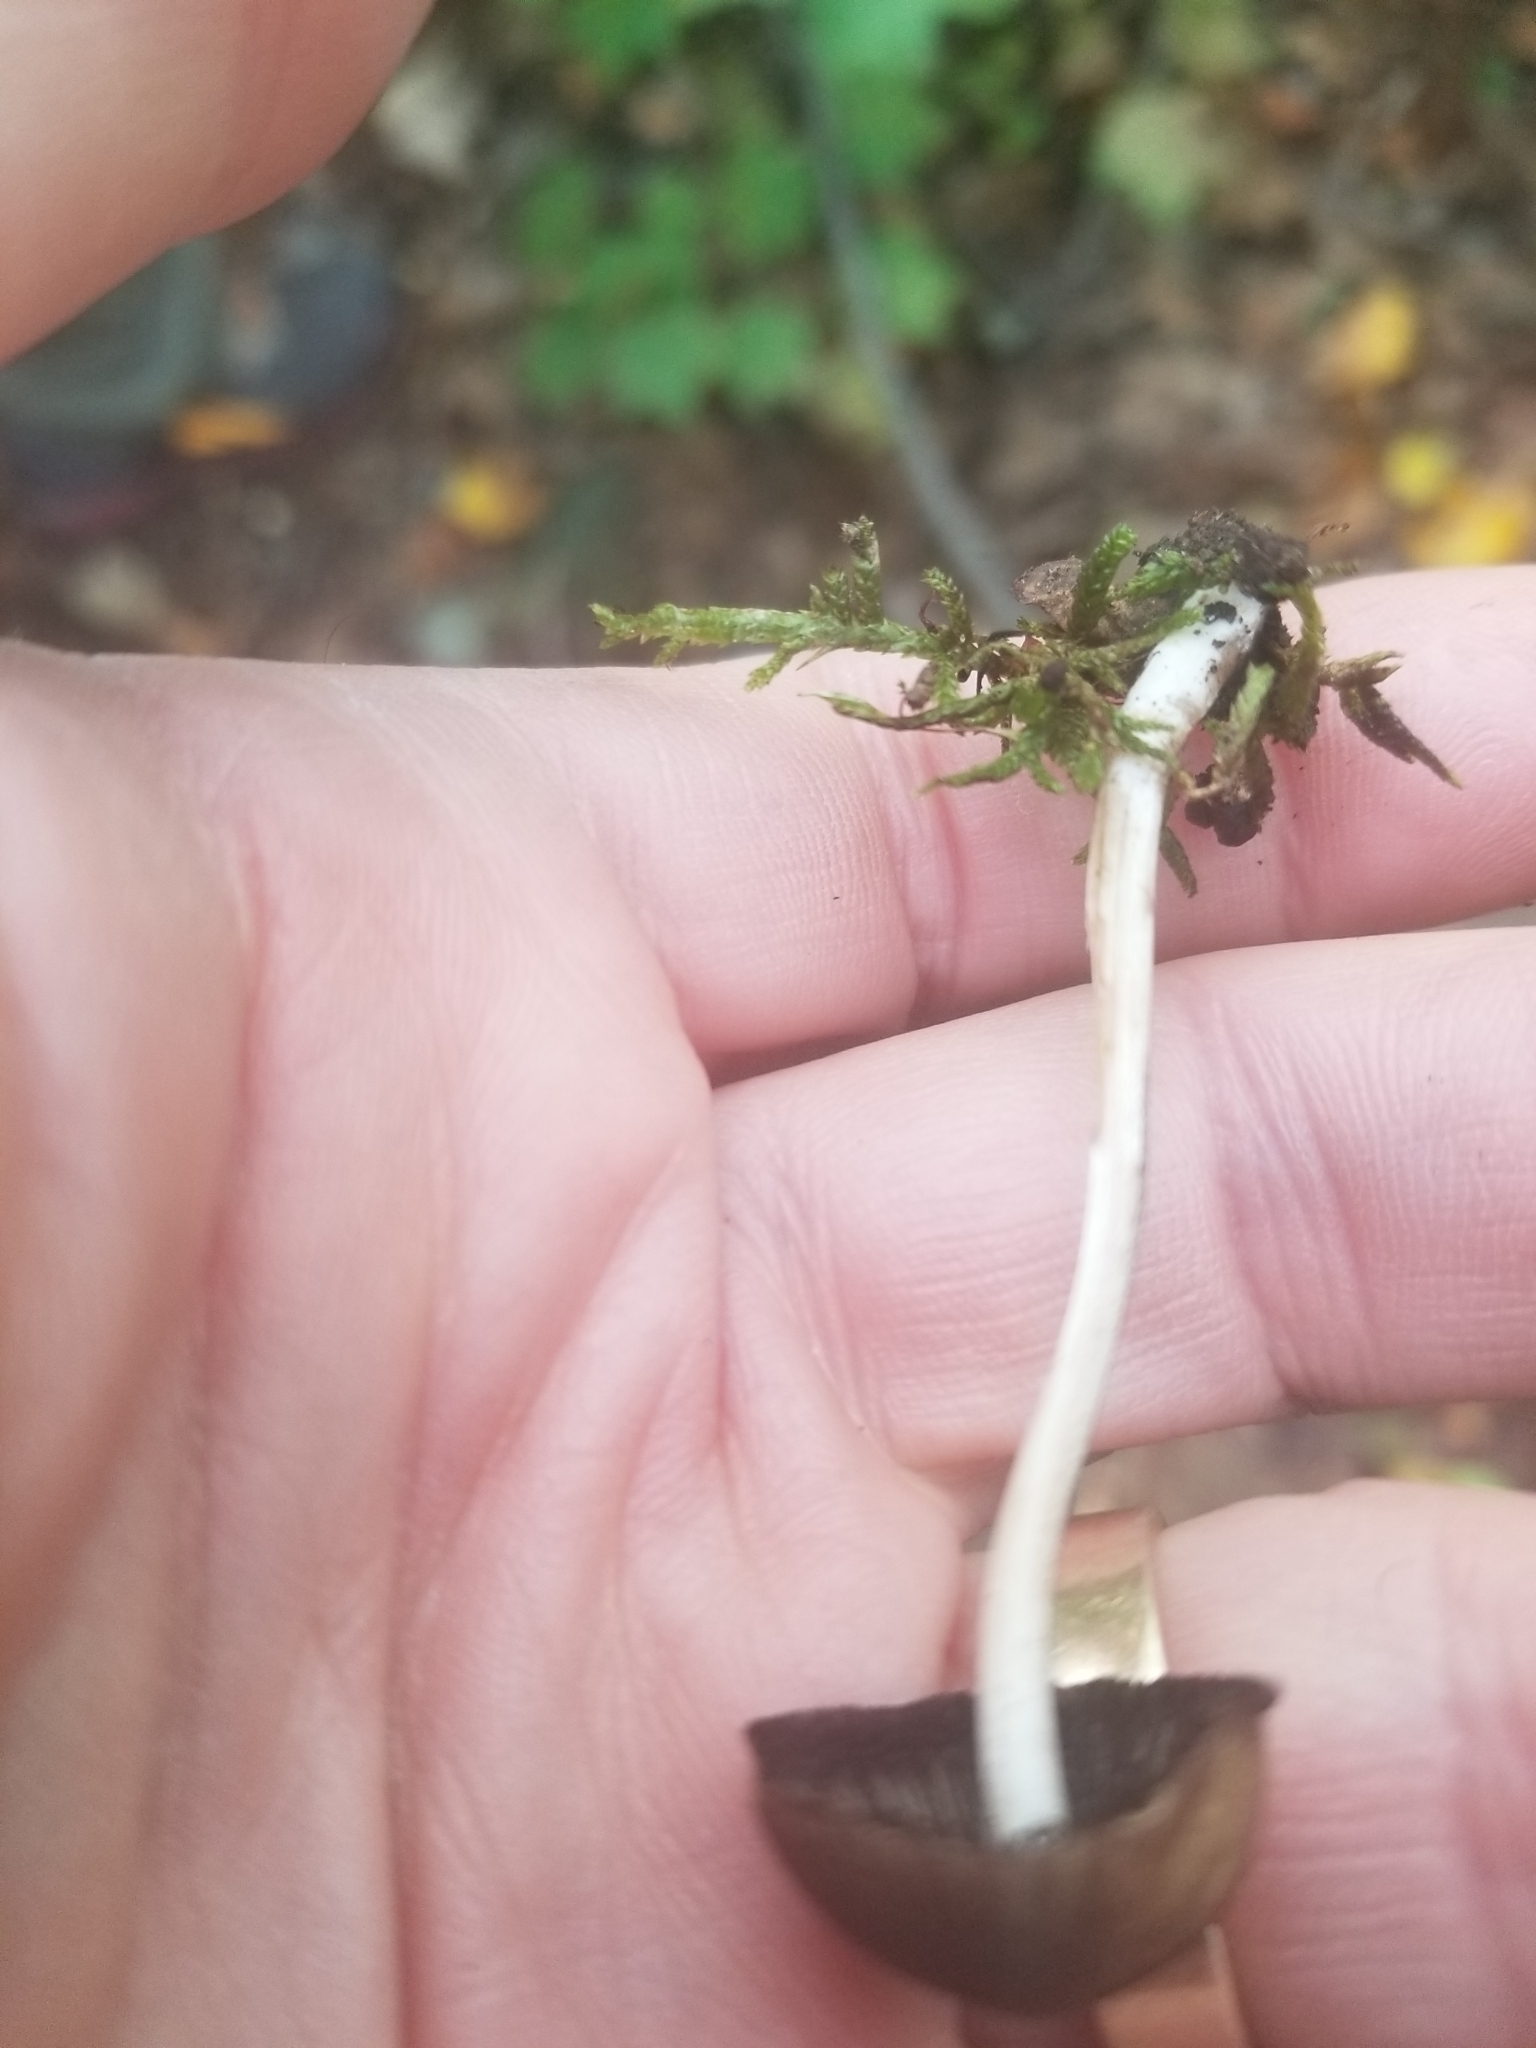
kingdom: Fungi
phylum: Basidiomycota
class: Agaricomycetes
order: Agaricales
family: Psathyrellaceae
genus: Coprinopsis
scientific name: Coprinopsis lagopus
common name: Hare'sfoot inkcap
